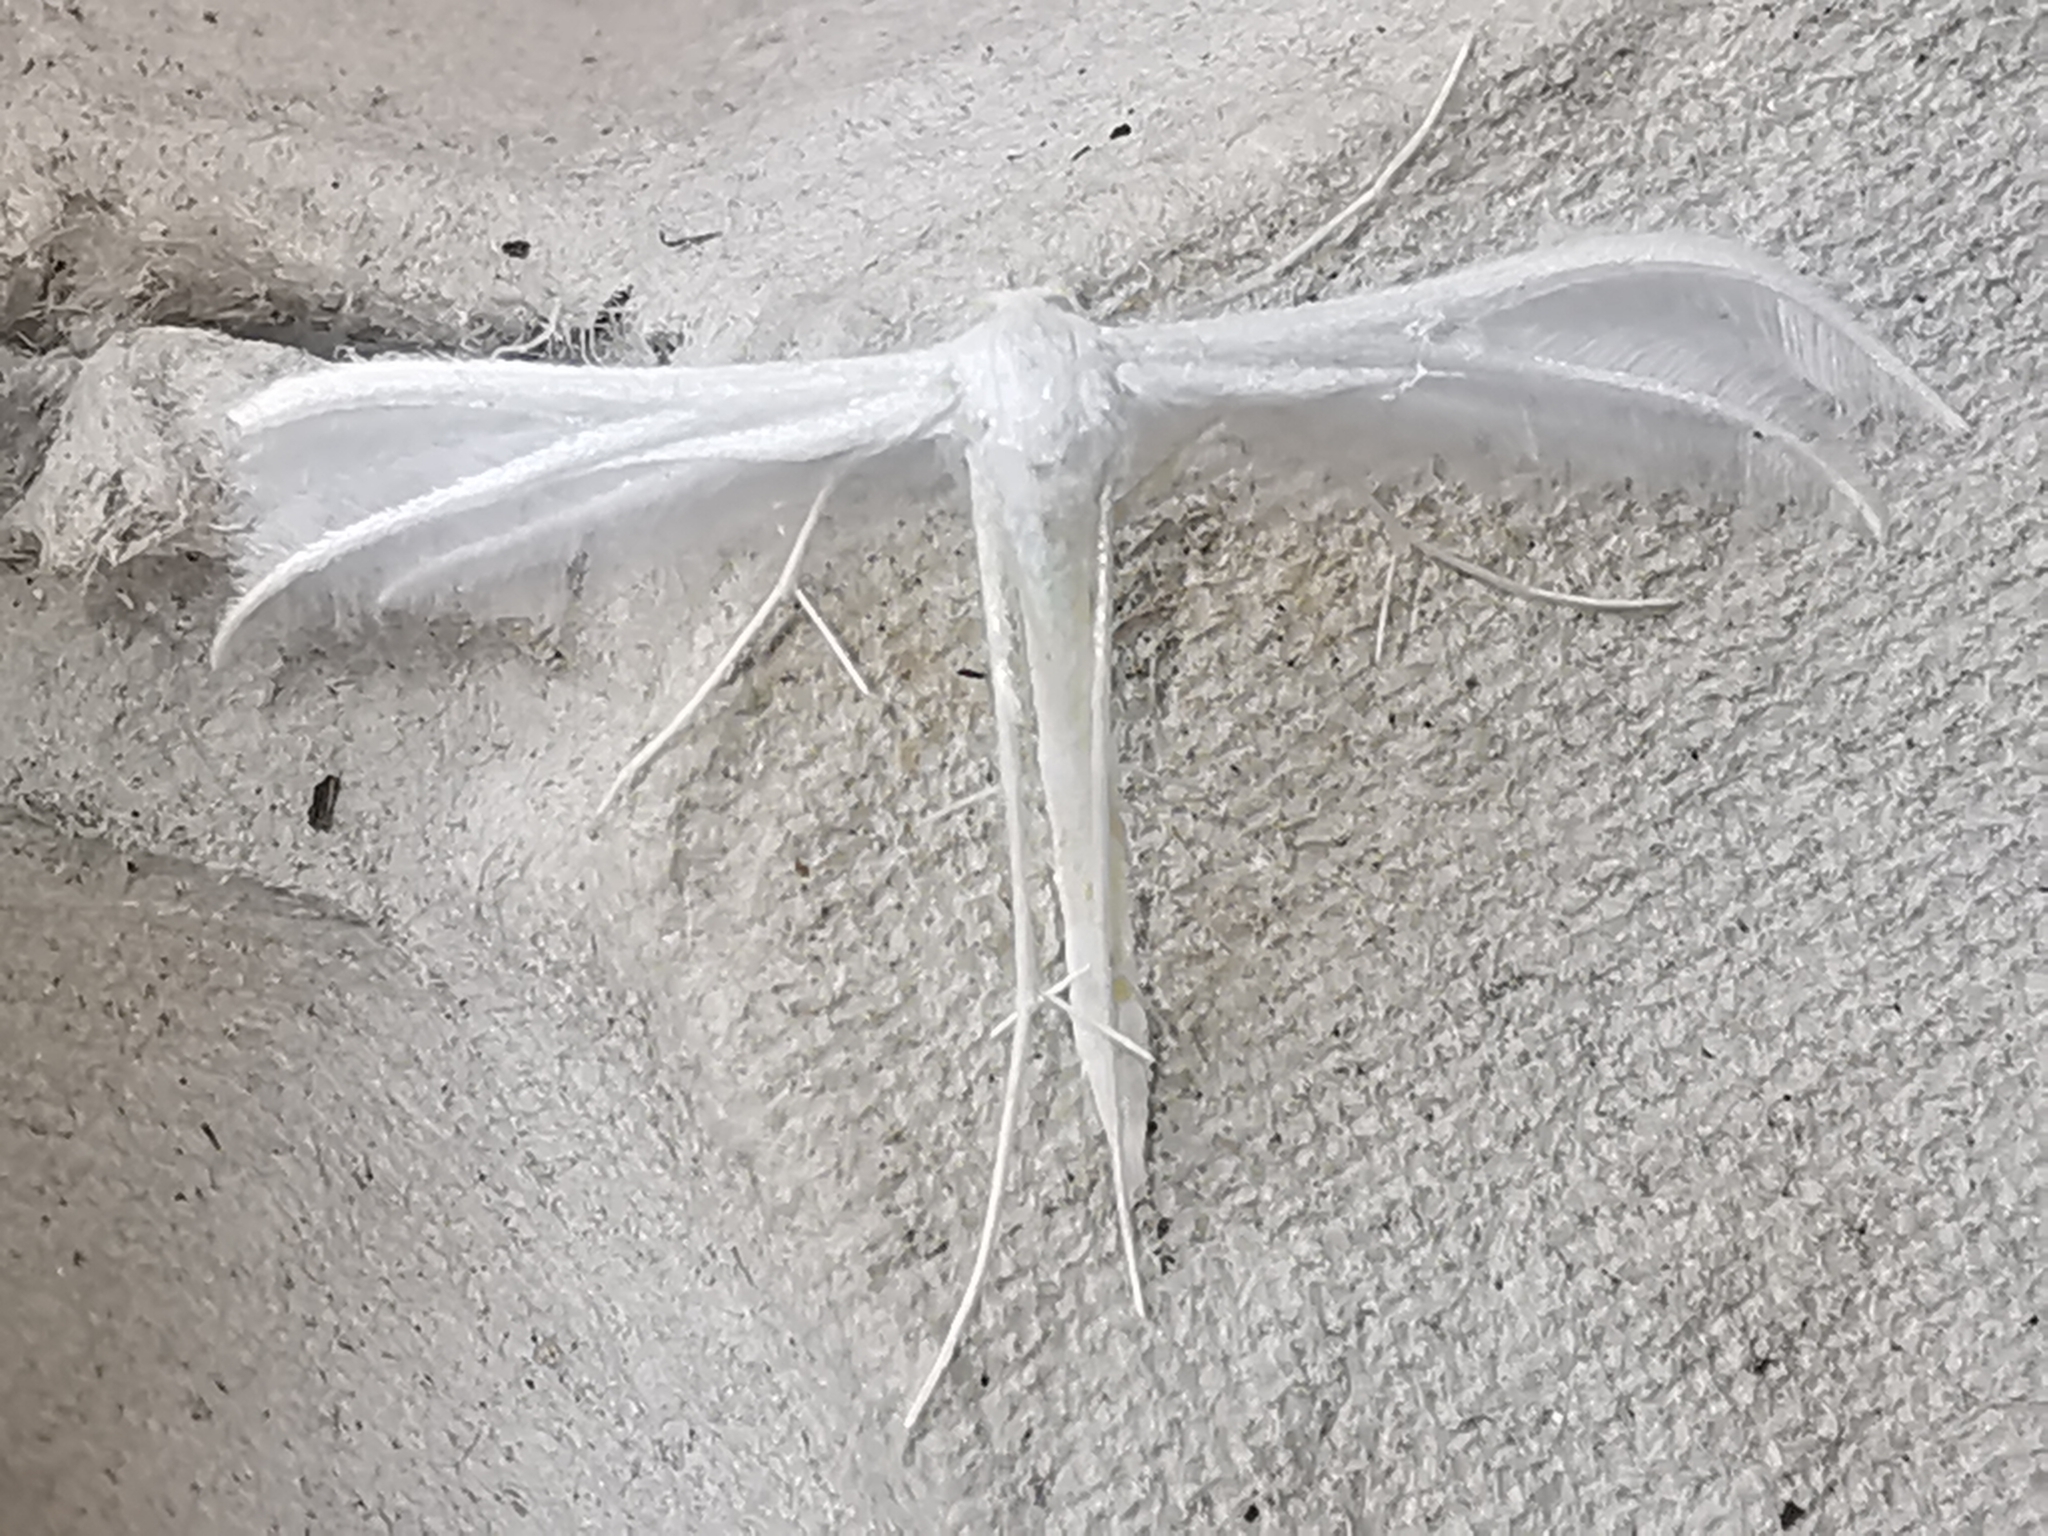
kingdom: Animalia
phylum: Arthropoda
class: Insecta
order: Lepidoptera
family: Pterophoridae
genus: Pterophorus
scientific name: Pterophorus pentadactyla
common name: White plume moth
